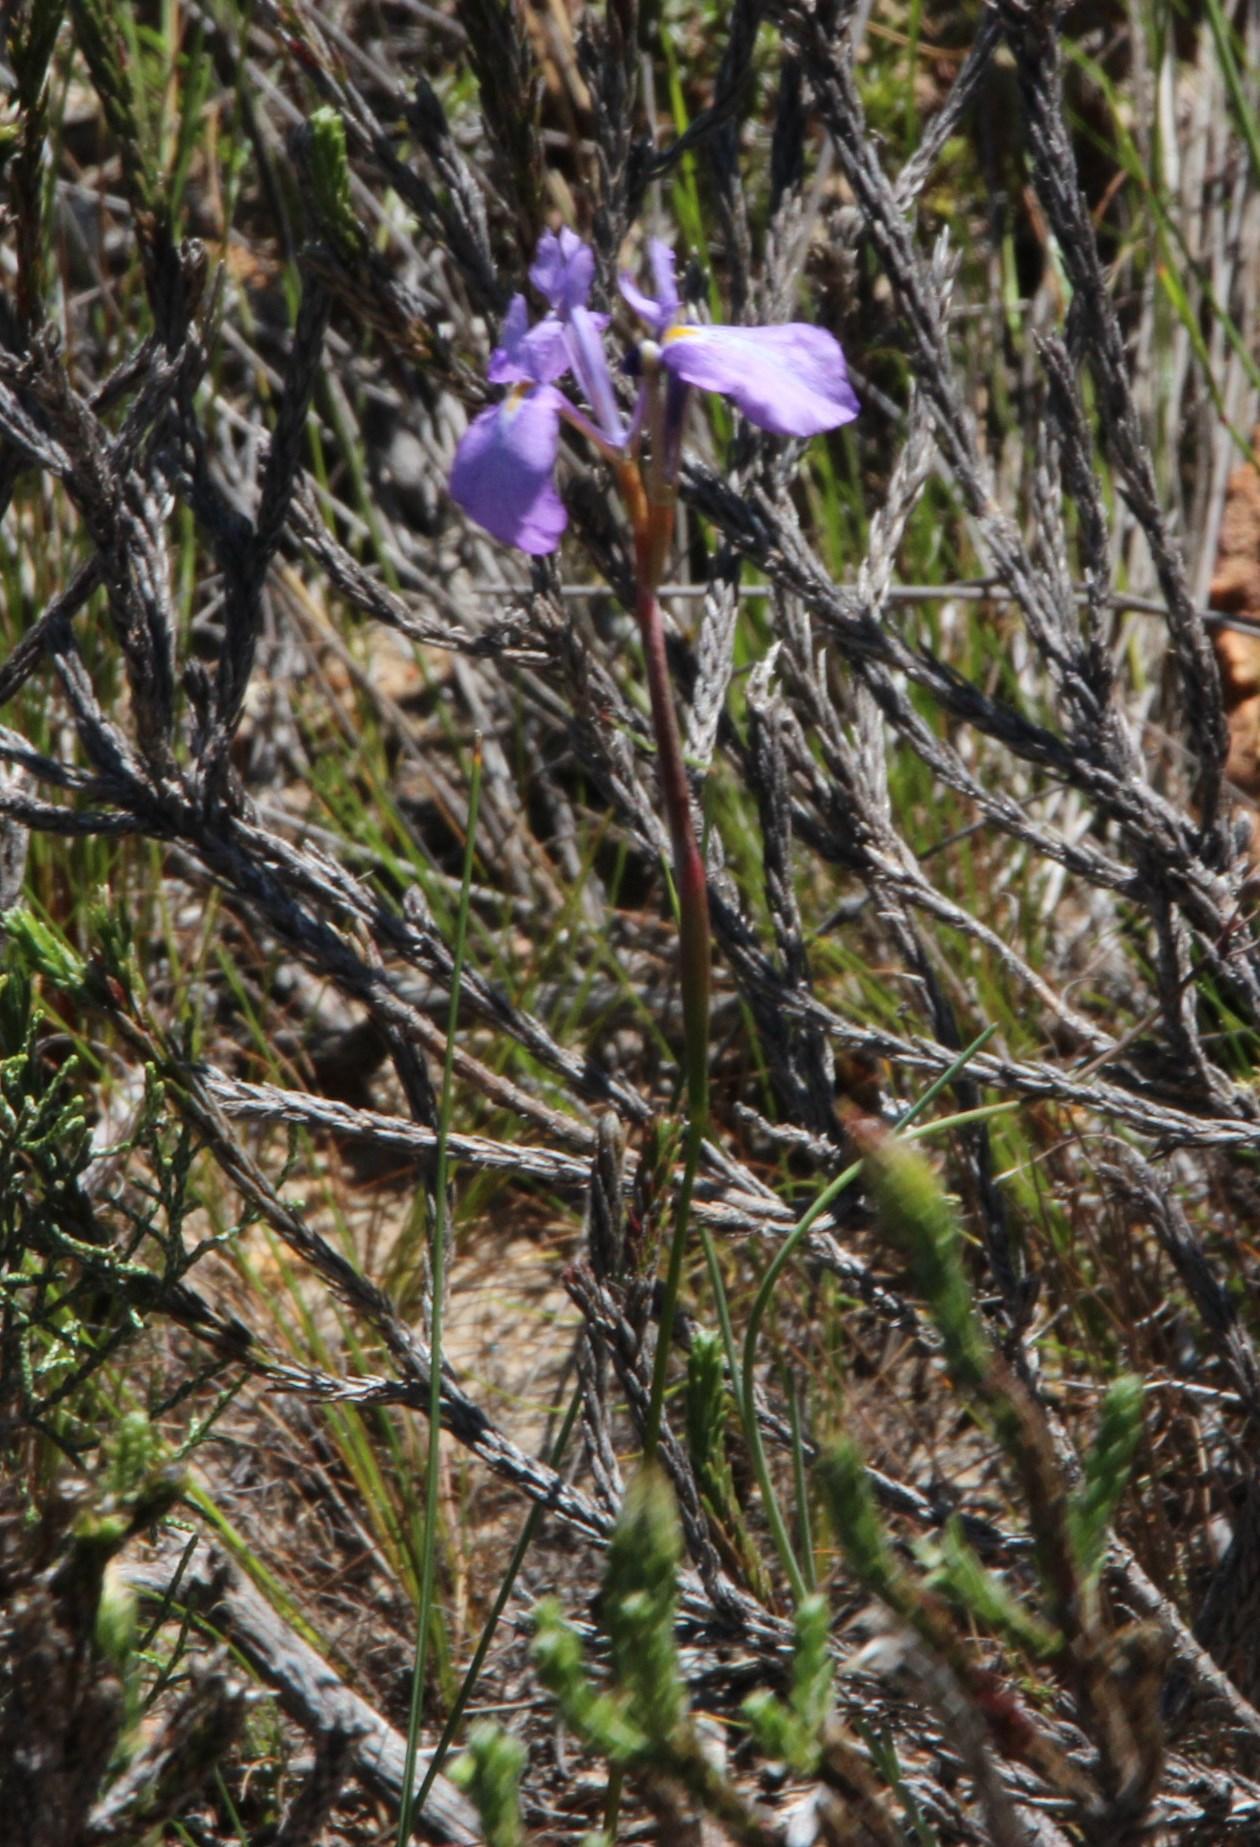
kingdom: Plantae
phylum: Tracheophyta
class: Liliopsida
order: Asparagales
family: Iridaceae
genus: Moraea
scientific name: Moraea tripetala
